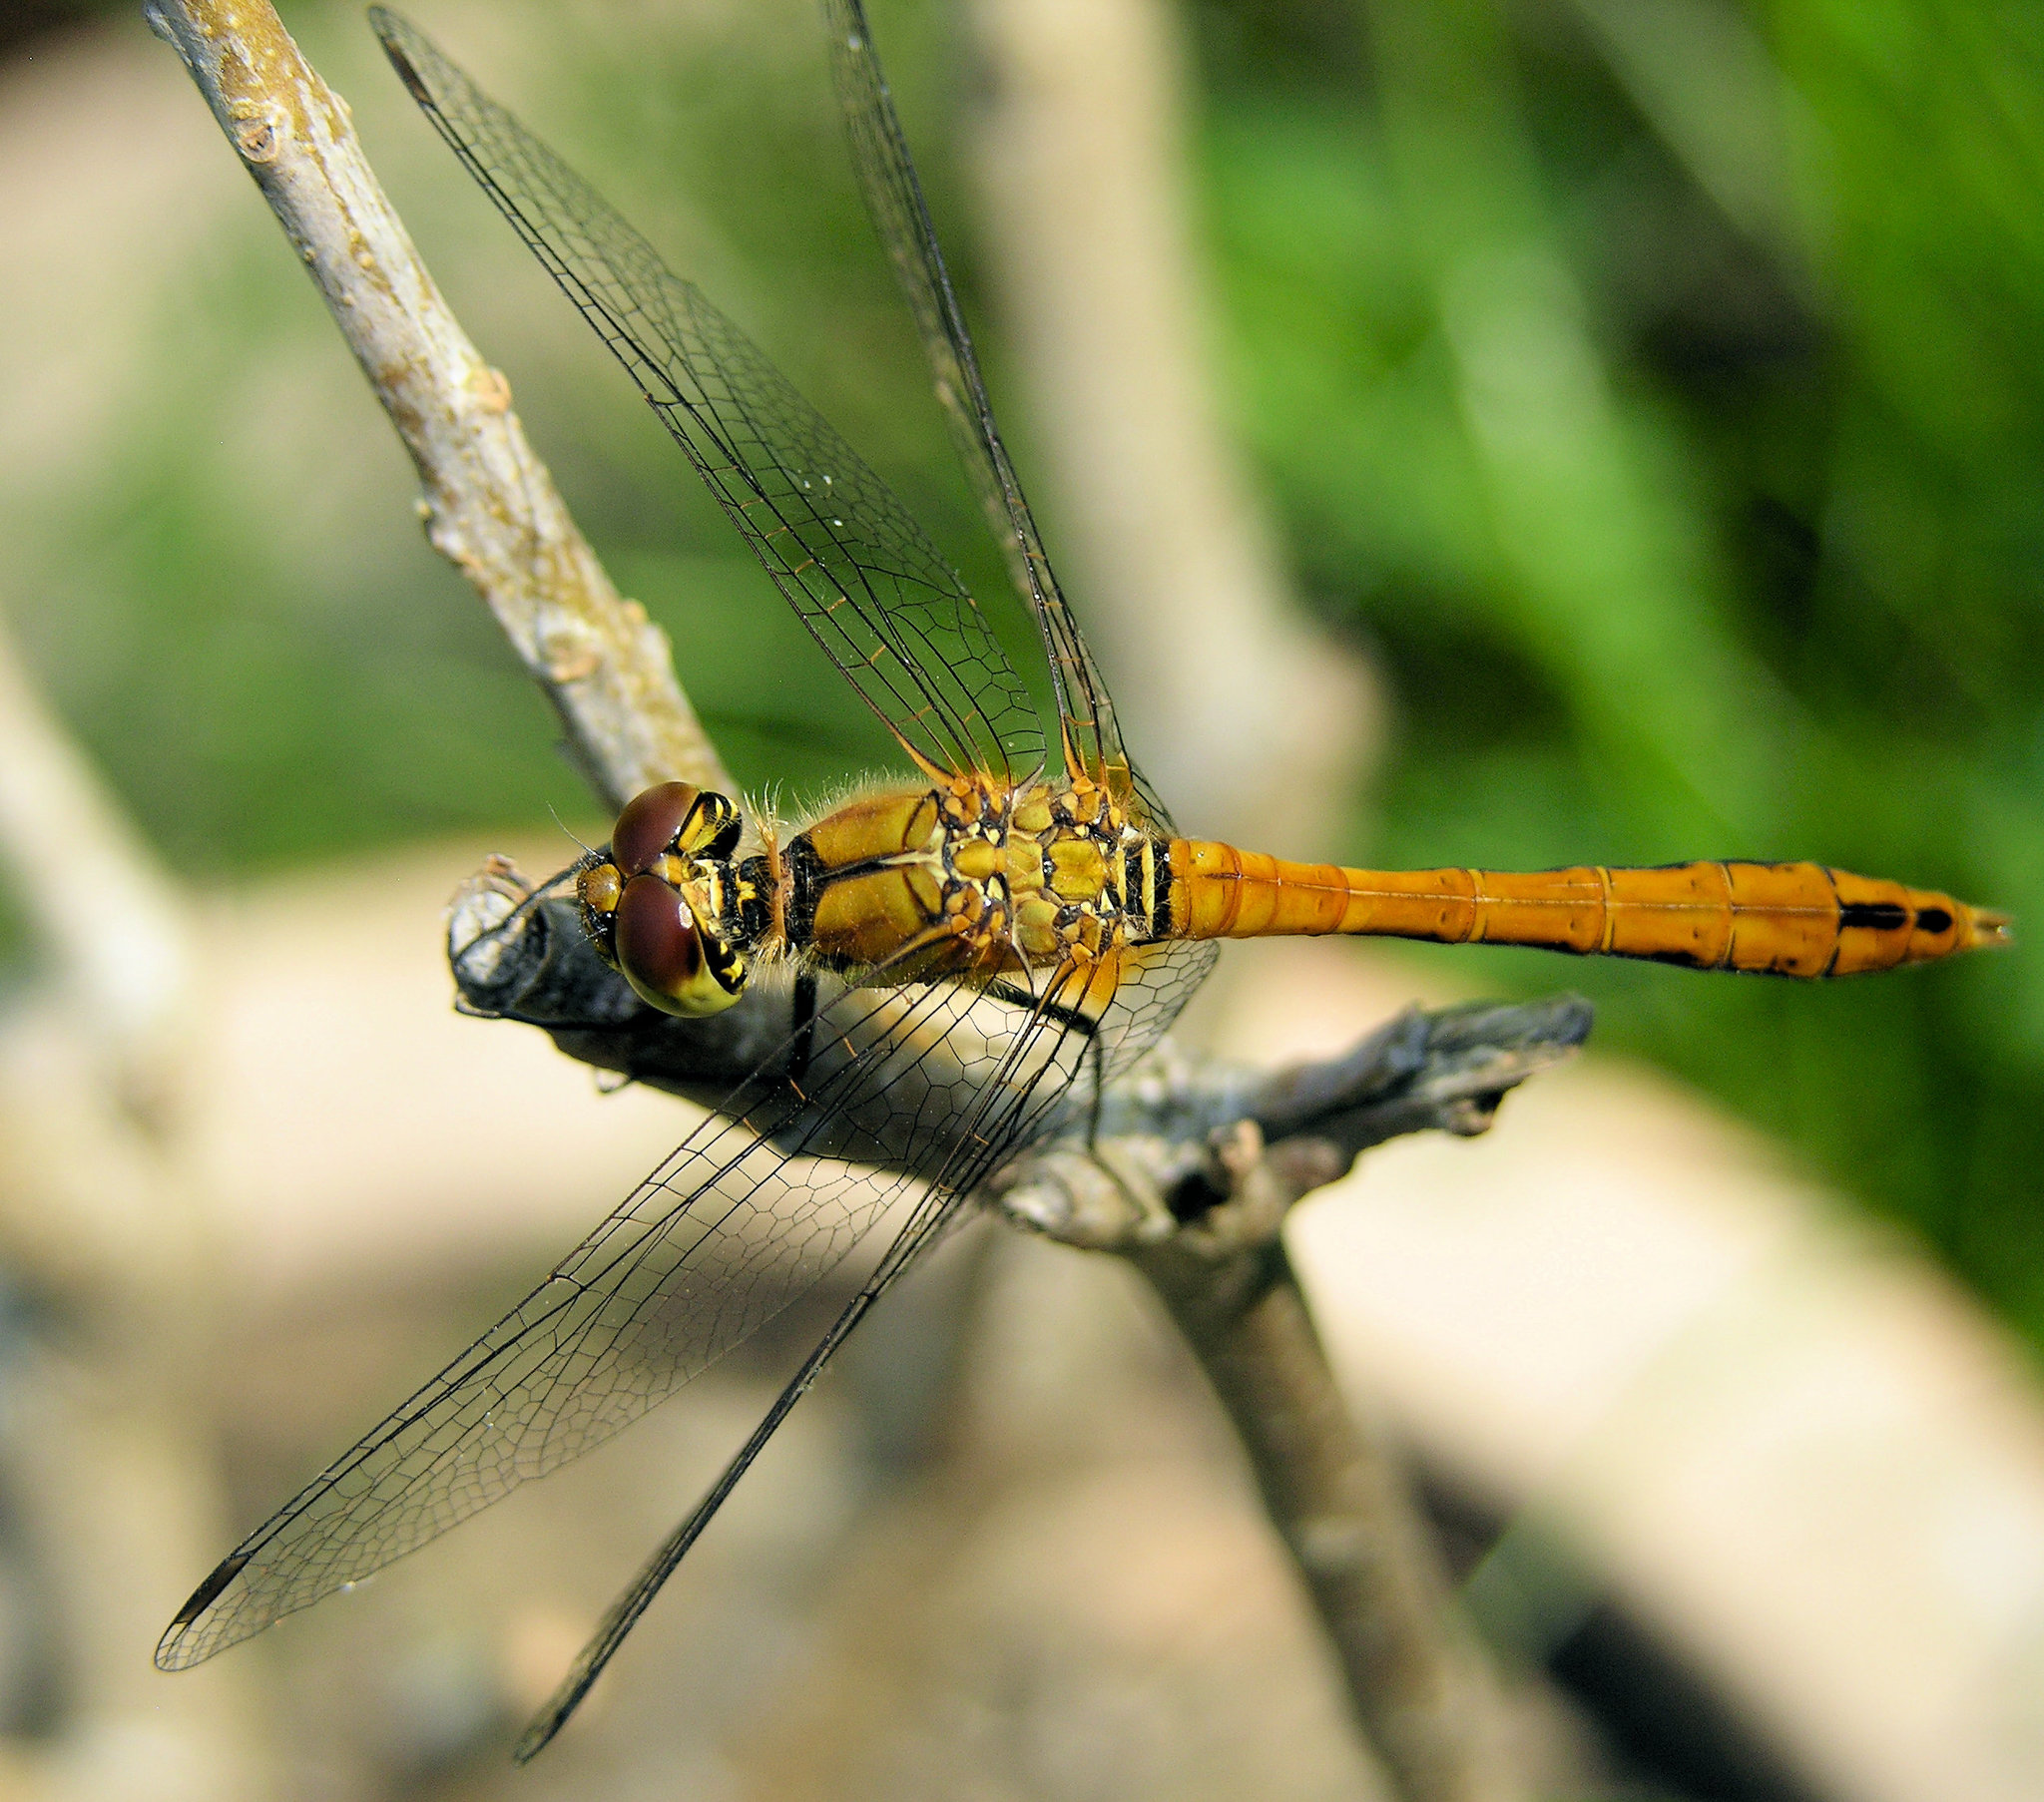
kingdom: Animalia
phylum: Arthropoda
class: Insecta
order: Odonata
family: Libellulidae
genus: Sympetrum
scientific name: Sympetrum sanguineum
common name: Ruddy darter
